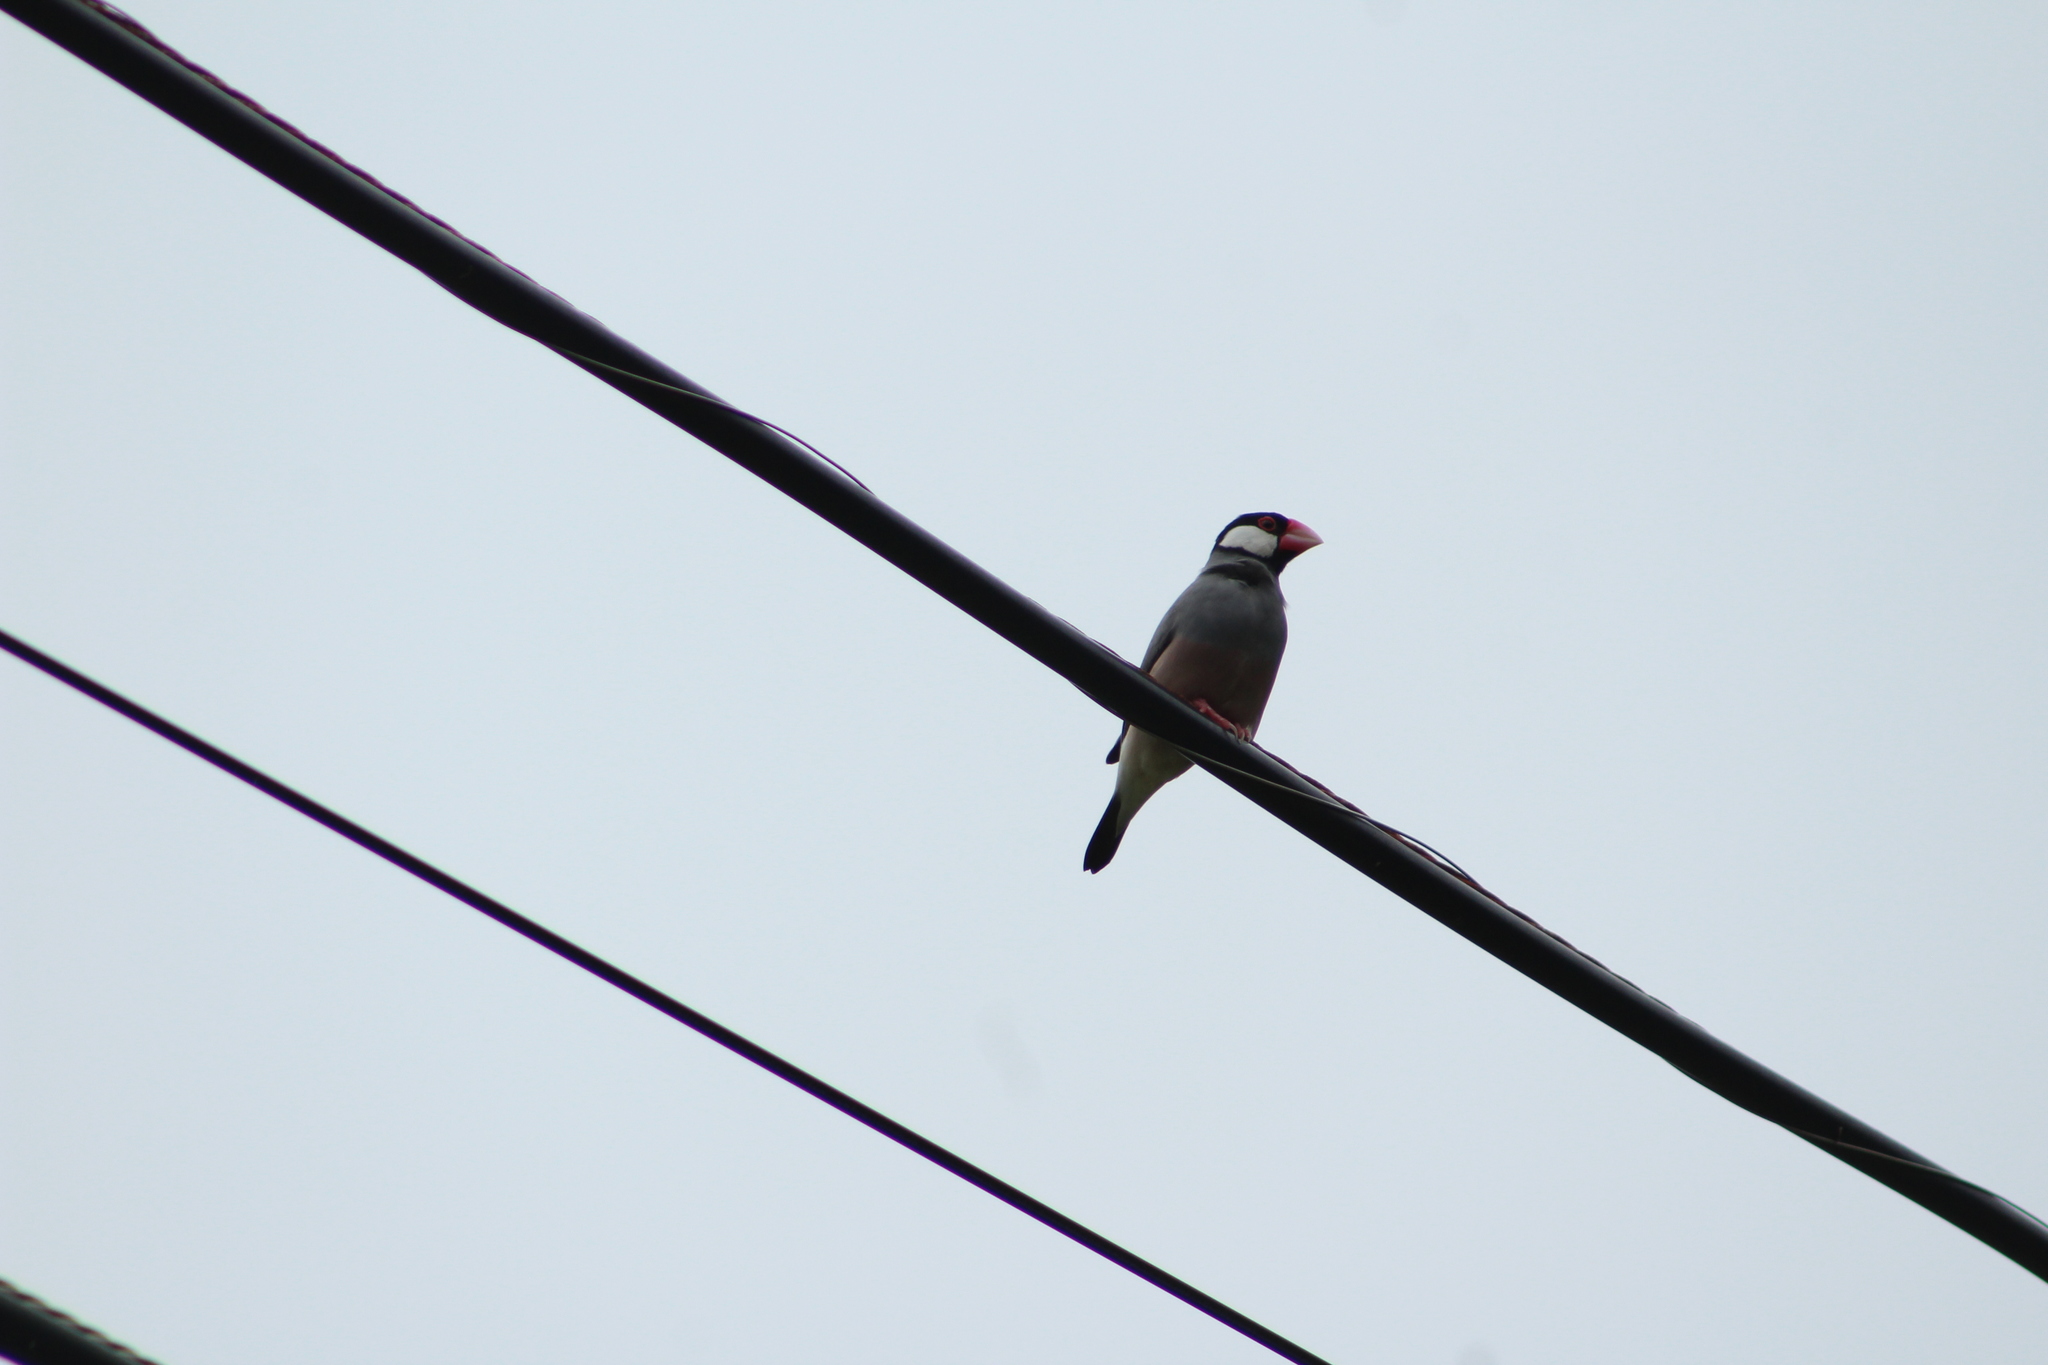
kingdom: Animalia
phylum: Chordata
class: Aves
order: Passeriformes
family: Estrildidae
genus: Lonchura
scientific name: Lonchura oryzivora
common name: Java sparrow
